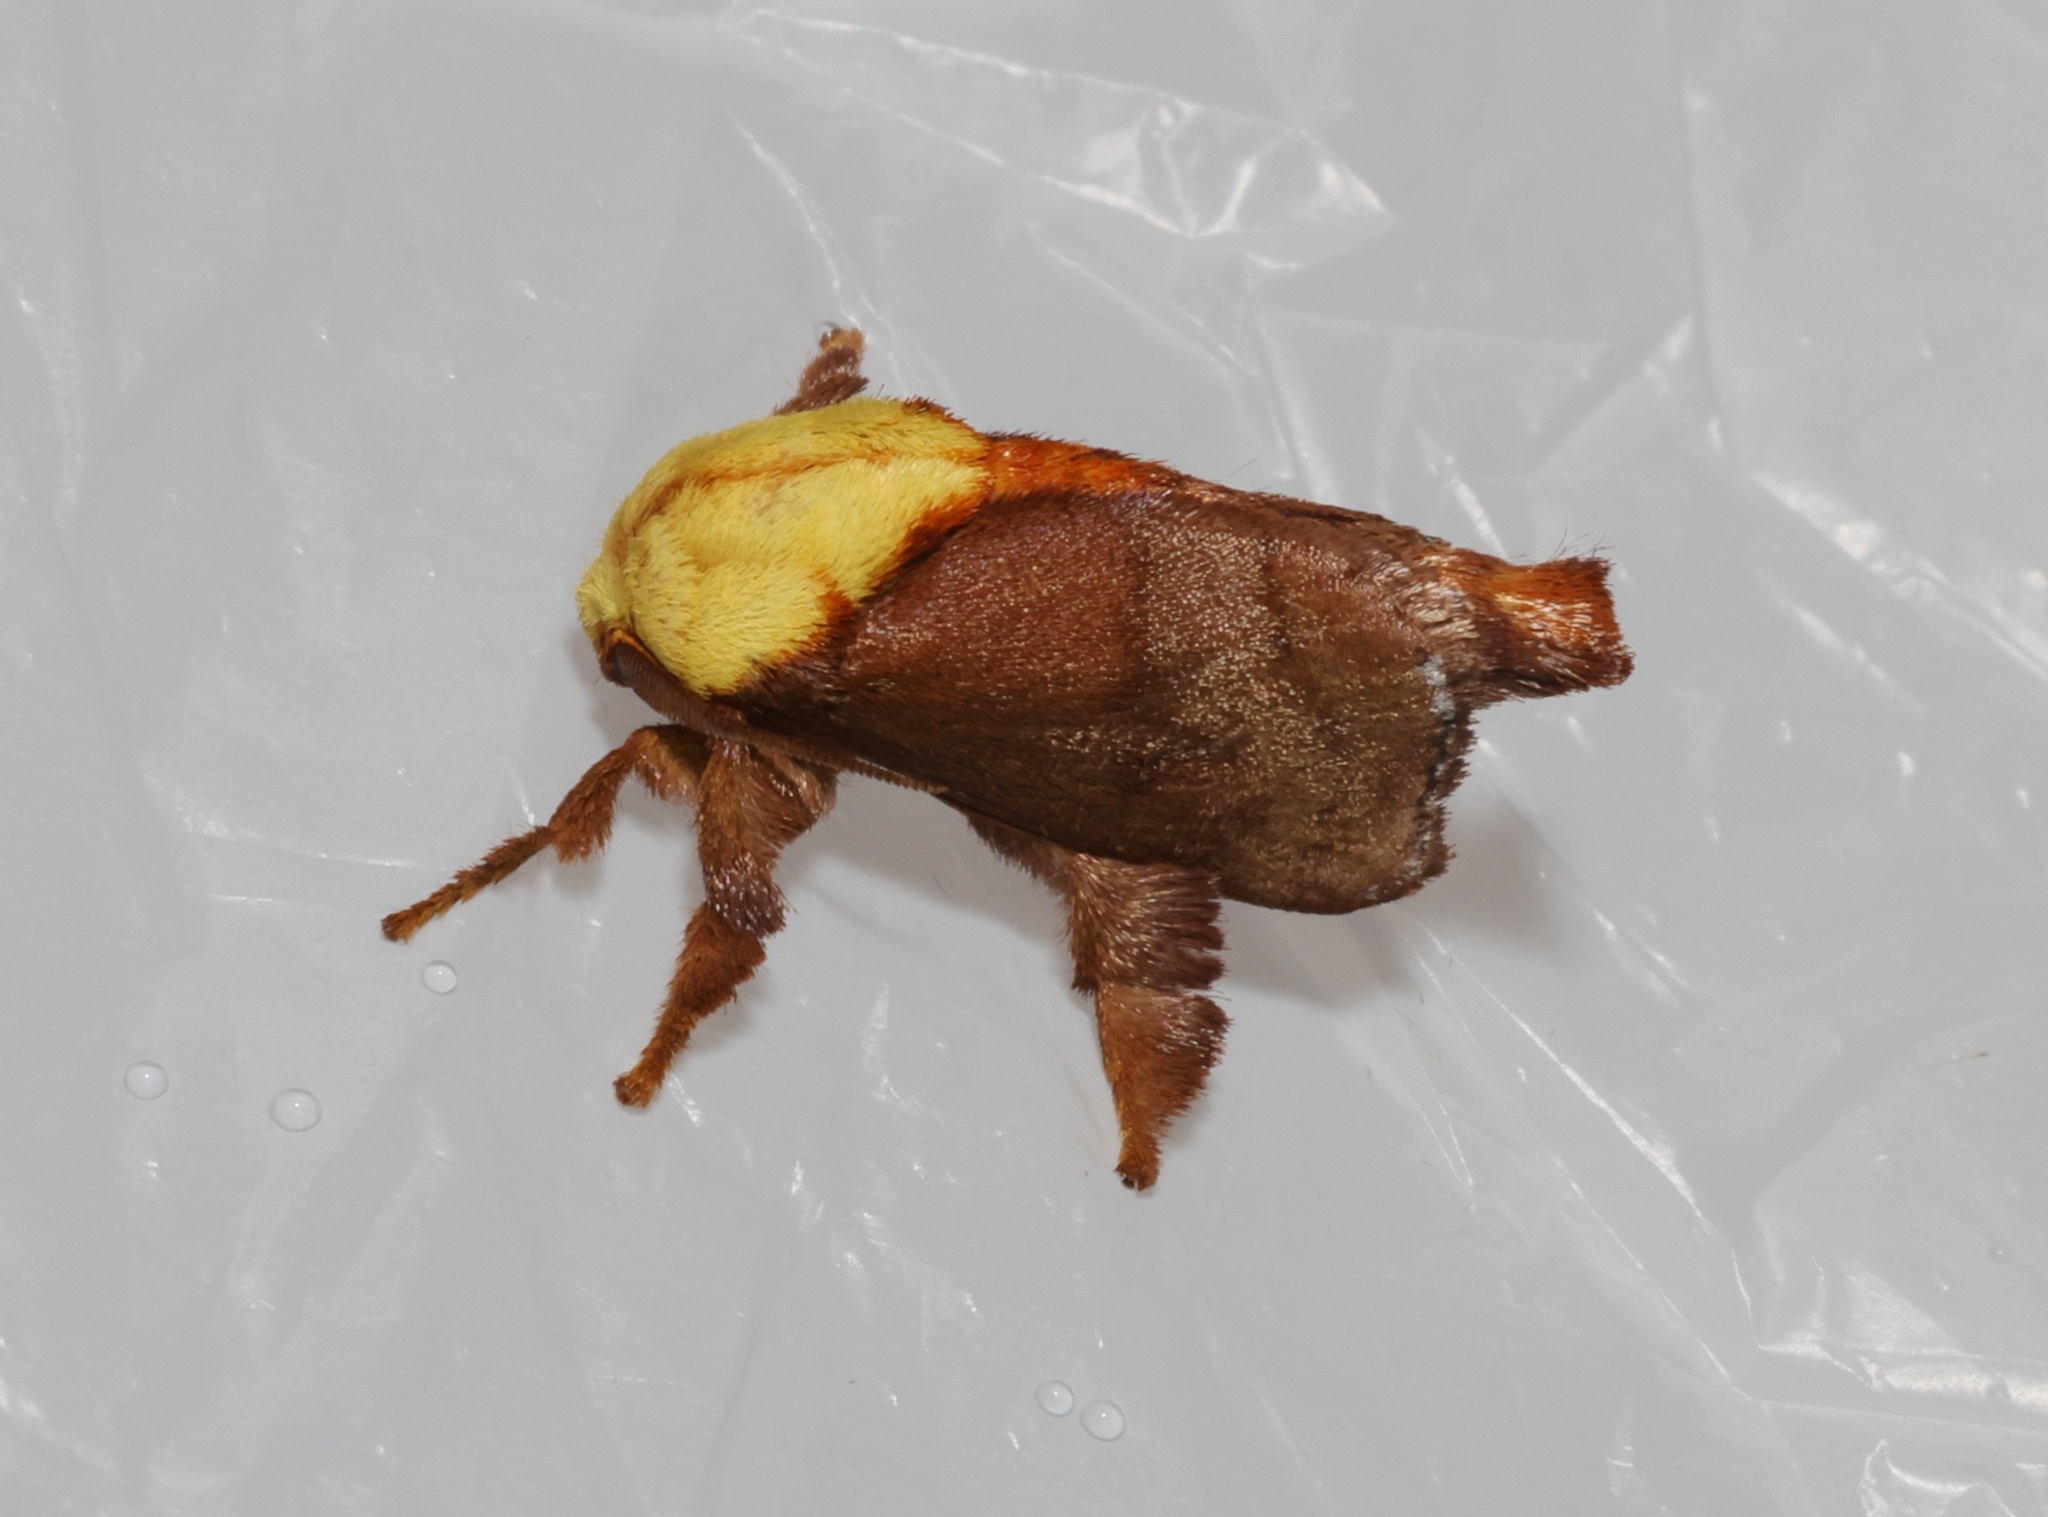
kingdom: Animalia
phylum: Arthropoda
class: Insecta
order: Lepidoptera
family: Limacodidae
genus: Miresa
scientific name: Miresa kwangtungensis
